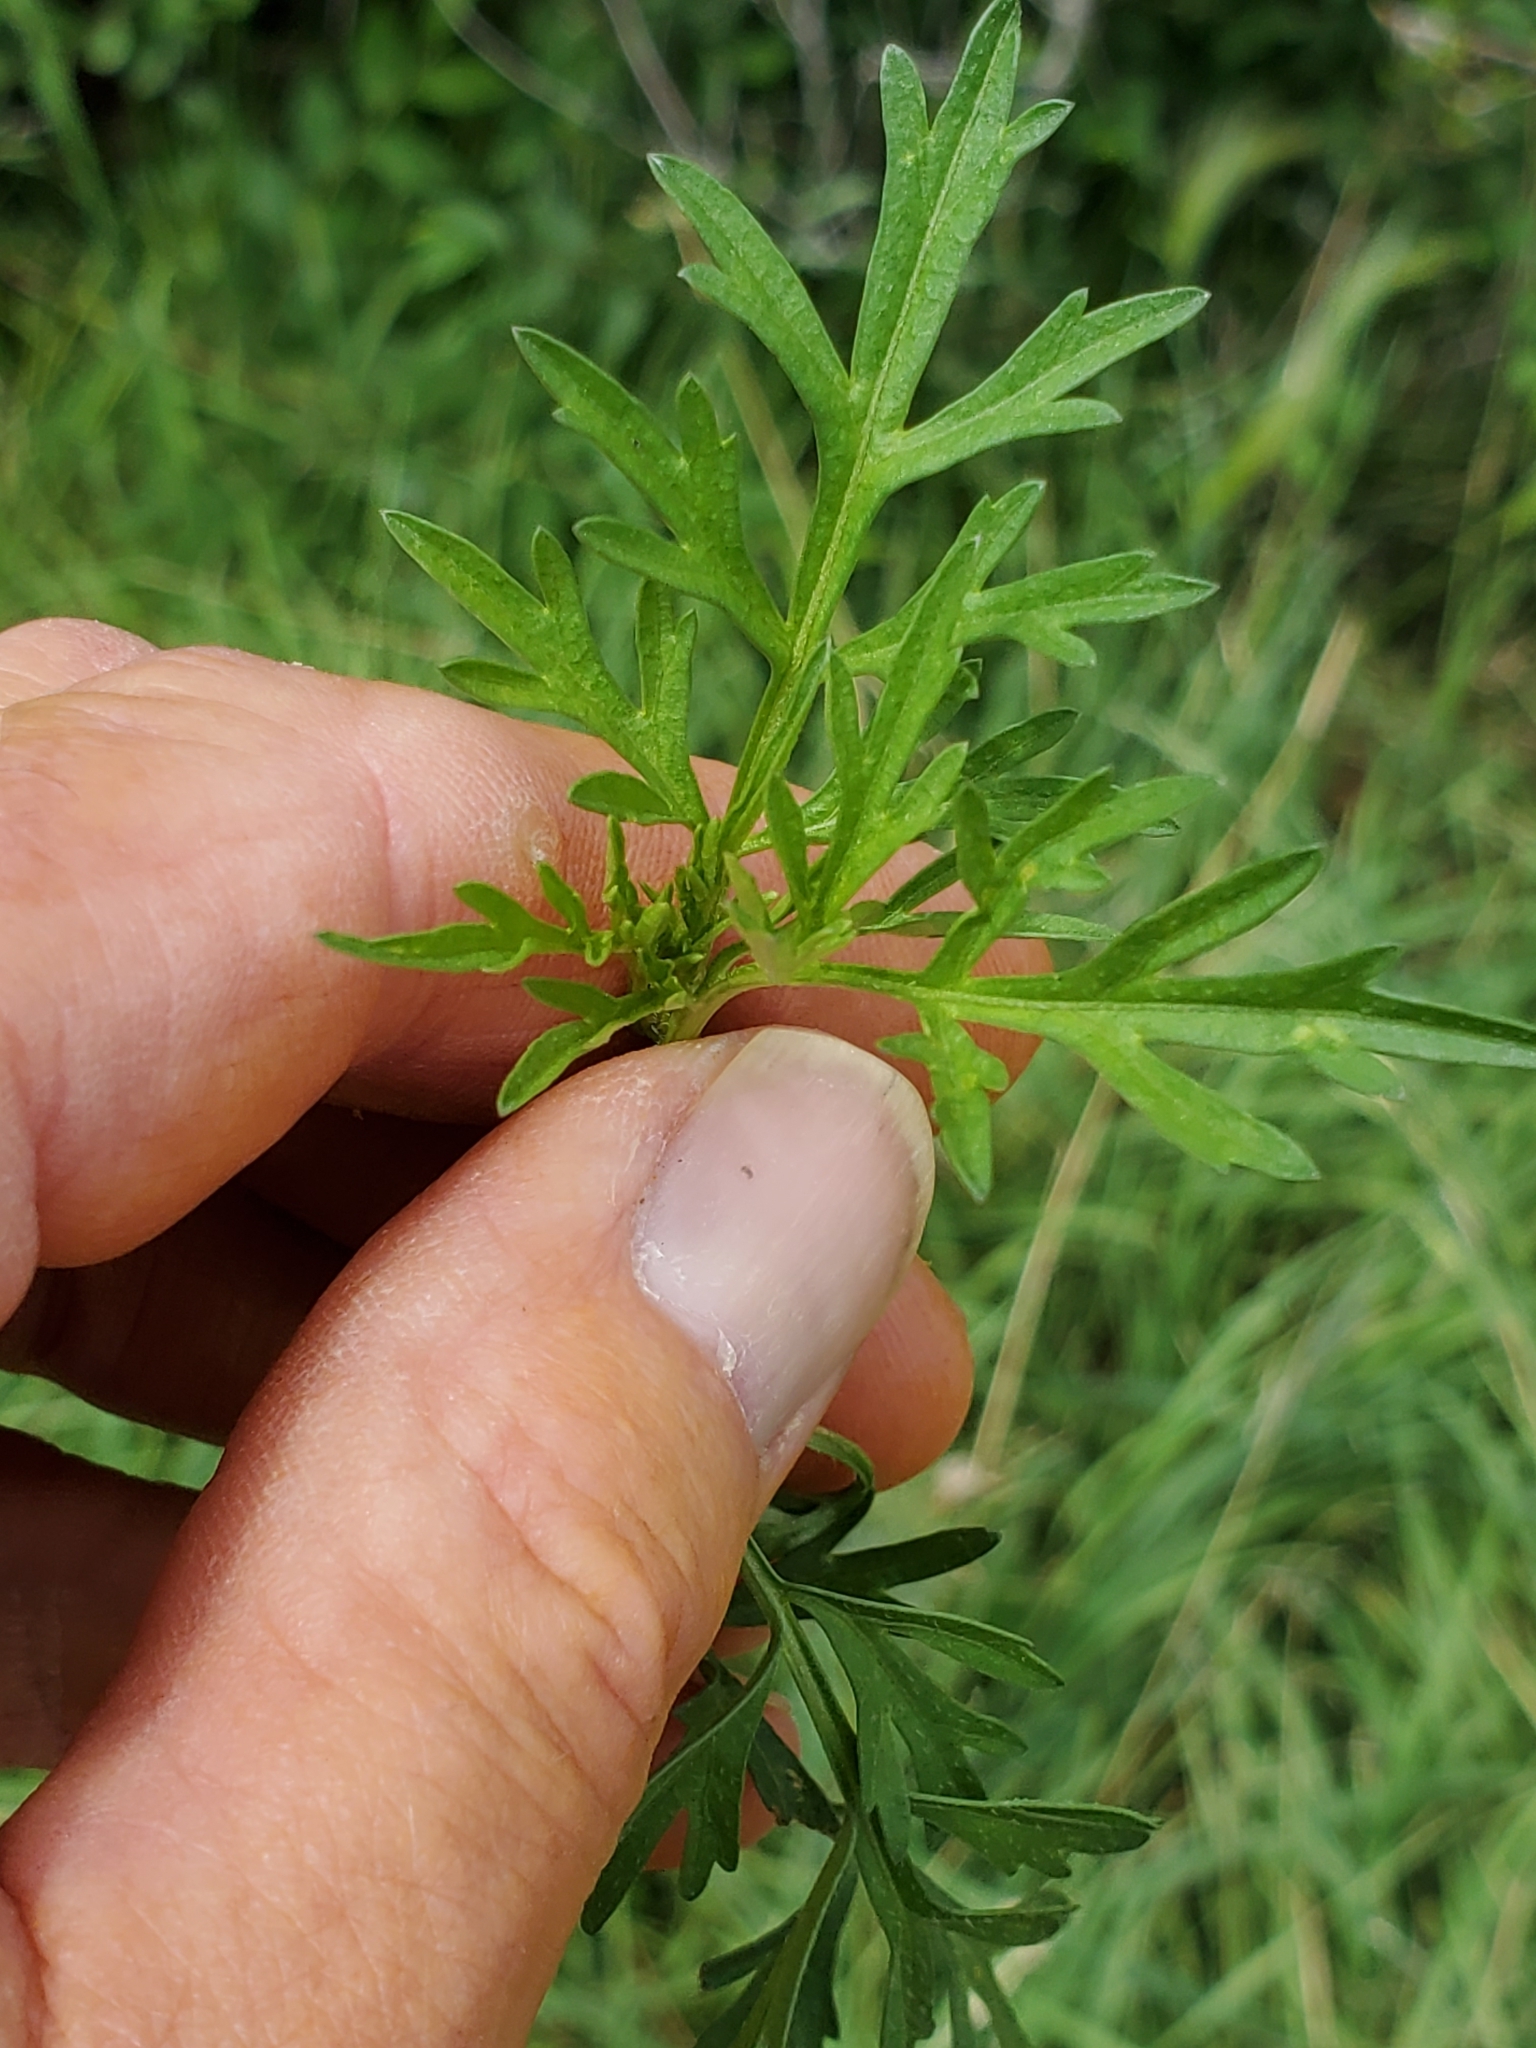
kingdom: Plantae
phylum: Tracheophyta
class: Magnoliopsida
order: Asterales
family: Asteraceae
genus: Bidens
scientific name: Bidens tenuisecta
